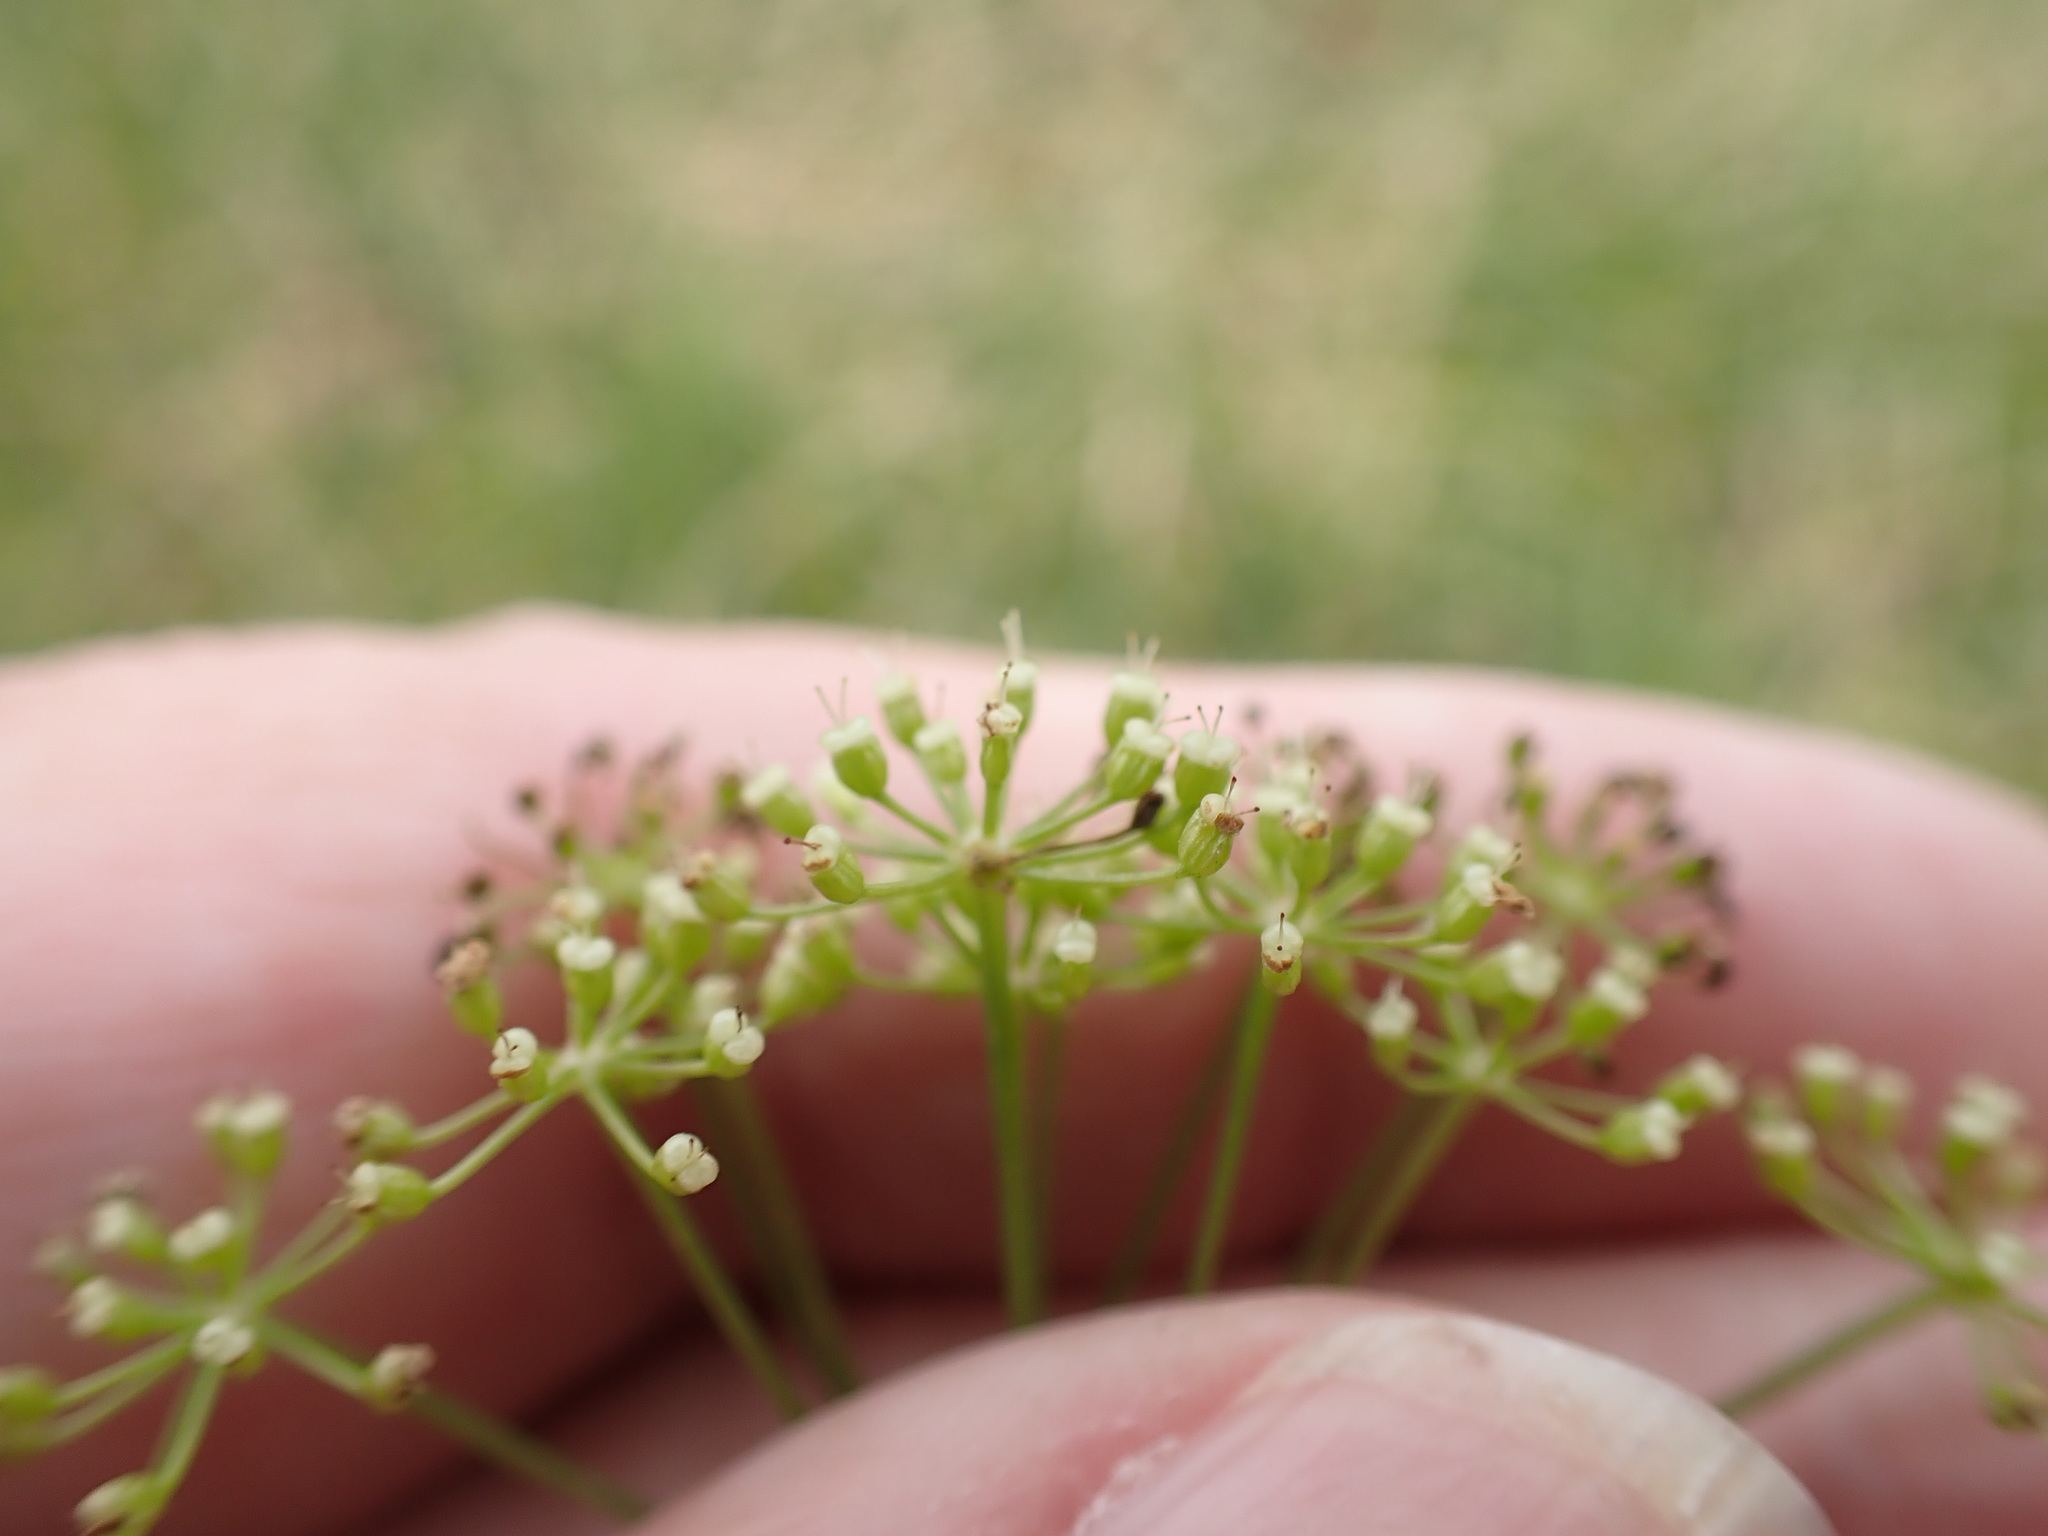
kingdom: Plantae
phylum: Tracheophyta
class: Magnoliopsida
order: Apiales
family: Apiaceae
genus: Pimpinella
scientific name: Pimpinella saxifraga
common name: Burnet-saxifrage
